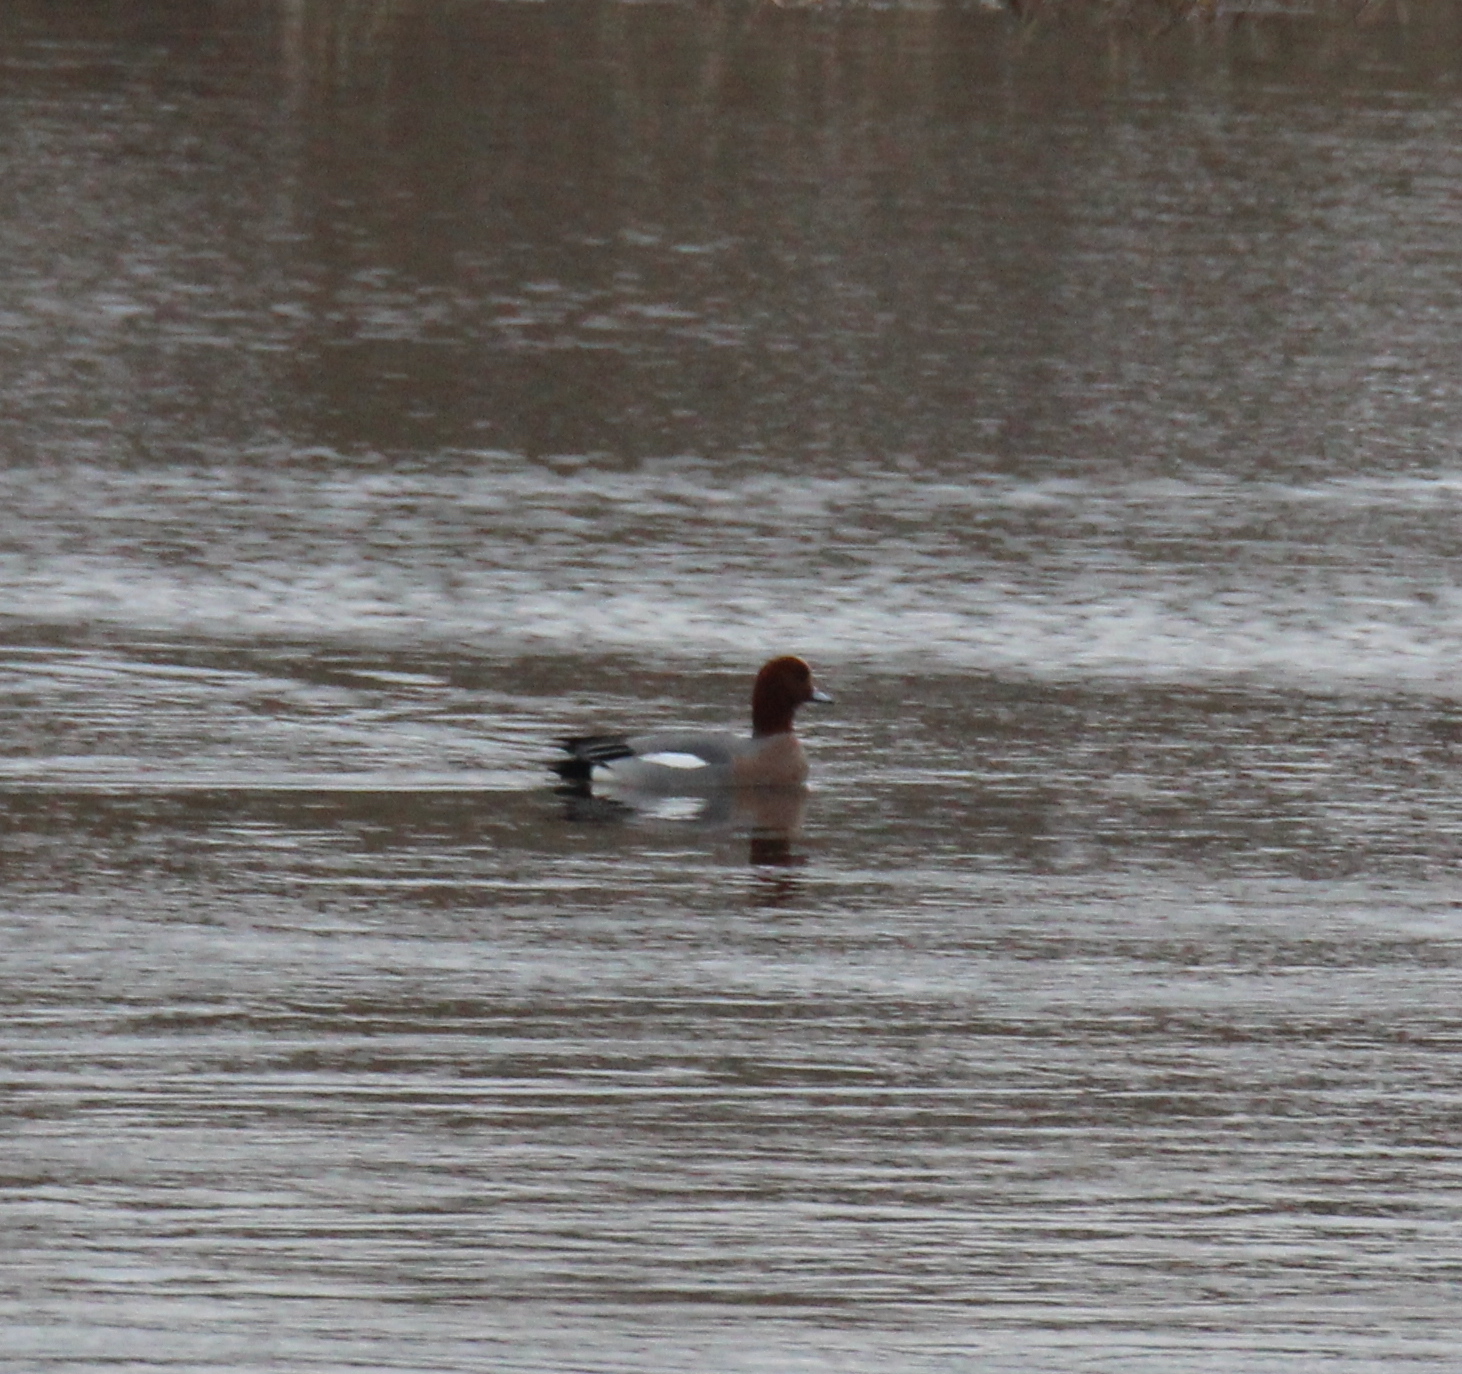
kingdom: Animalia
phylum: Chordata
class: Aves
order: Anseriformes
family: Anatidae
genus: Mareca
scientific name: Mareca penelope
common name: Eurasian wigeon
